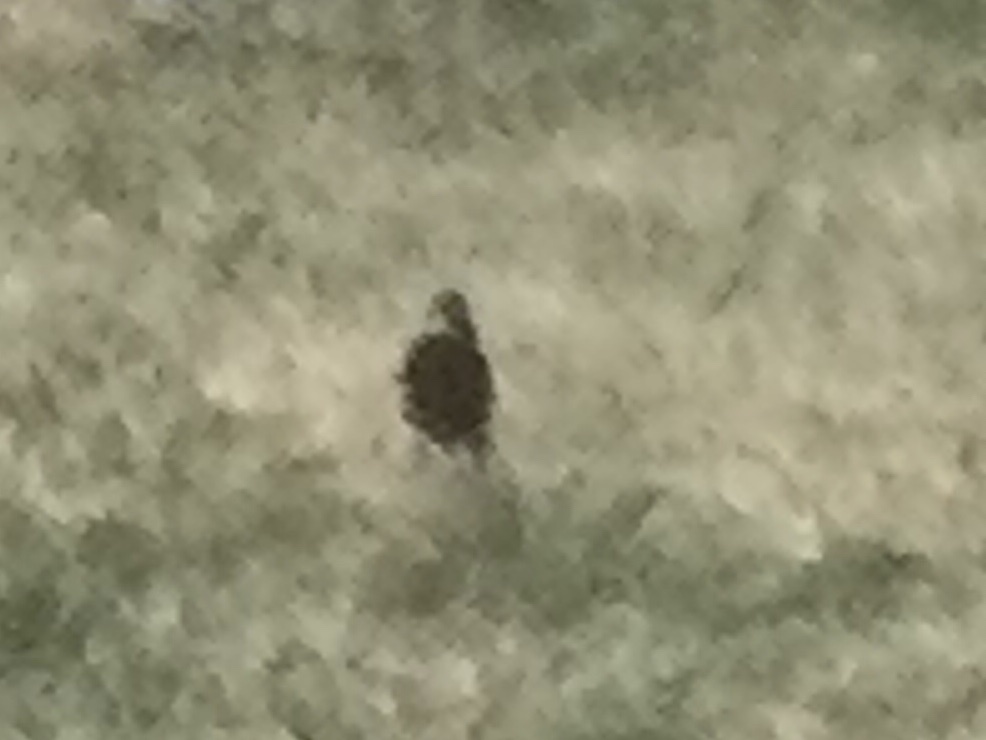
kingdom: Animalia
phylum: Chordata
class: Aves
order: Passeriformes
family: Sturnidae
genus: Sturnus
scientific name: Sturnus vulgaris
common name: Common starling
